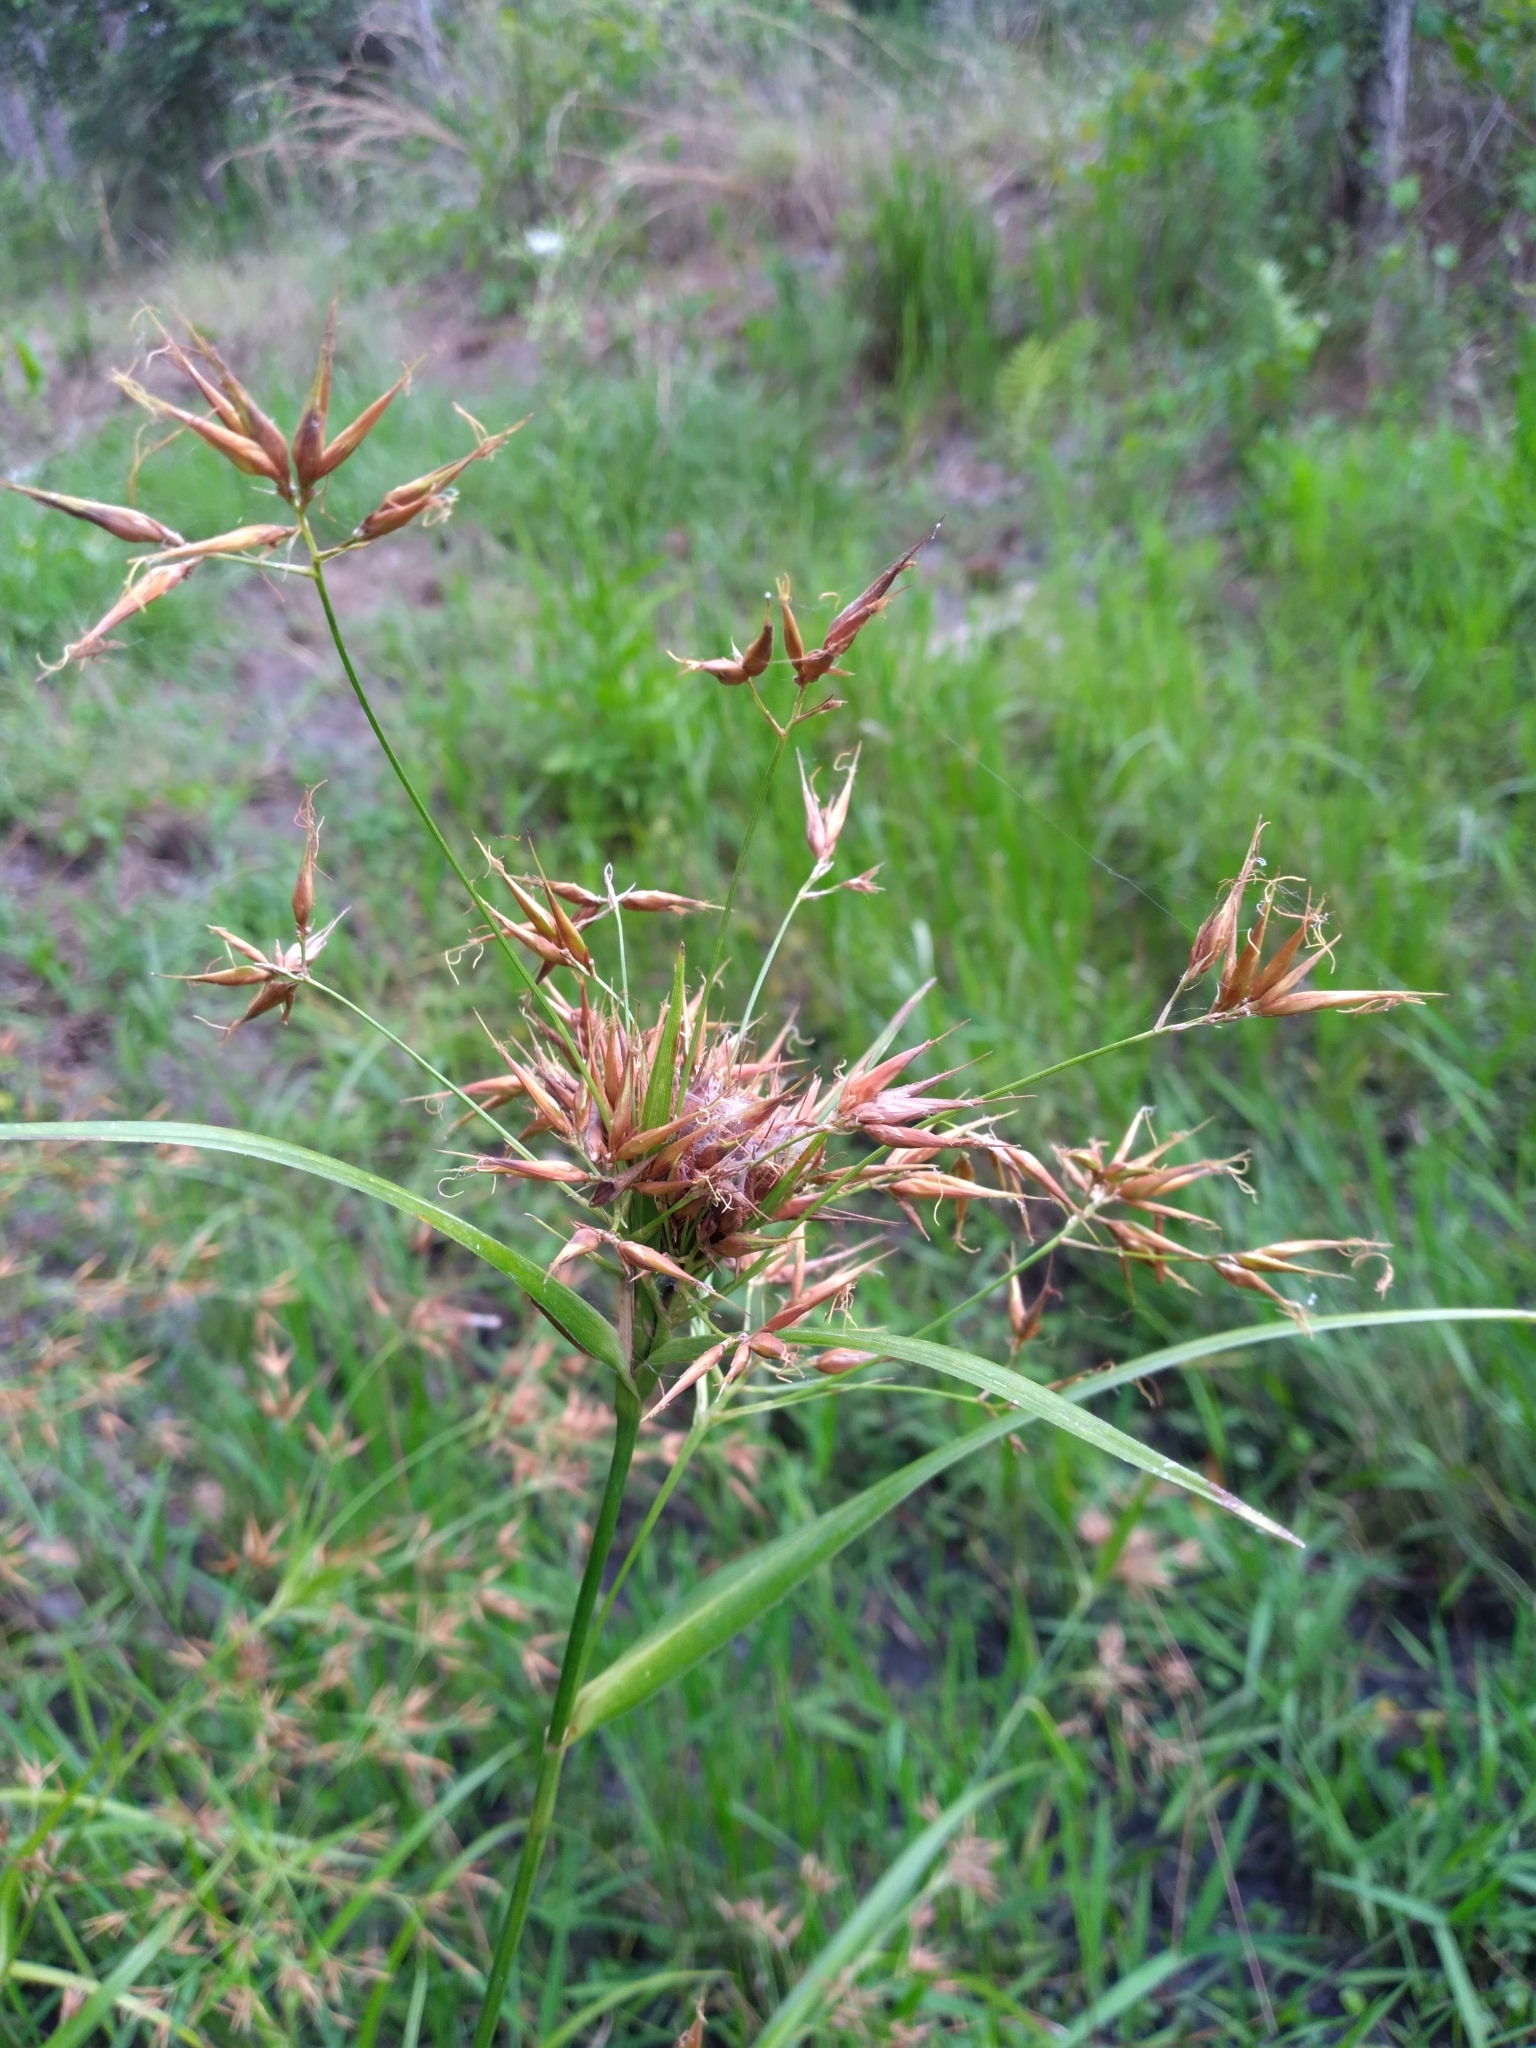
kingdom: Plantae
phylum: Tracheophyta
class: Liliopsida
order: Poales
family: Cyperaceae
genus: Rhynchospora
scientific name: Rhynchospora careyana
